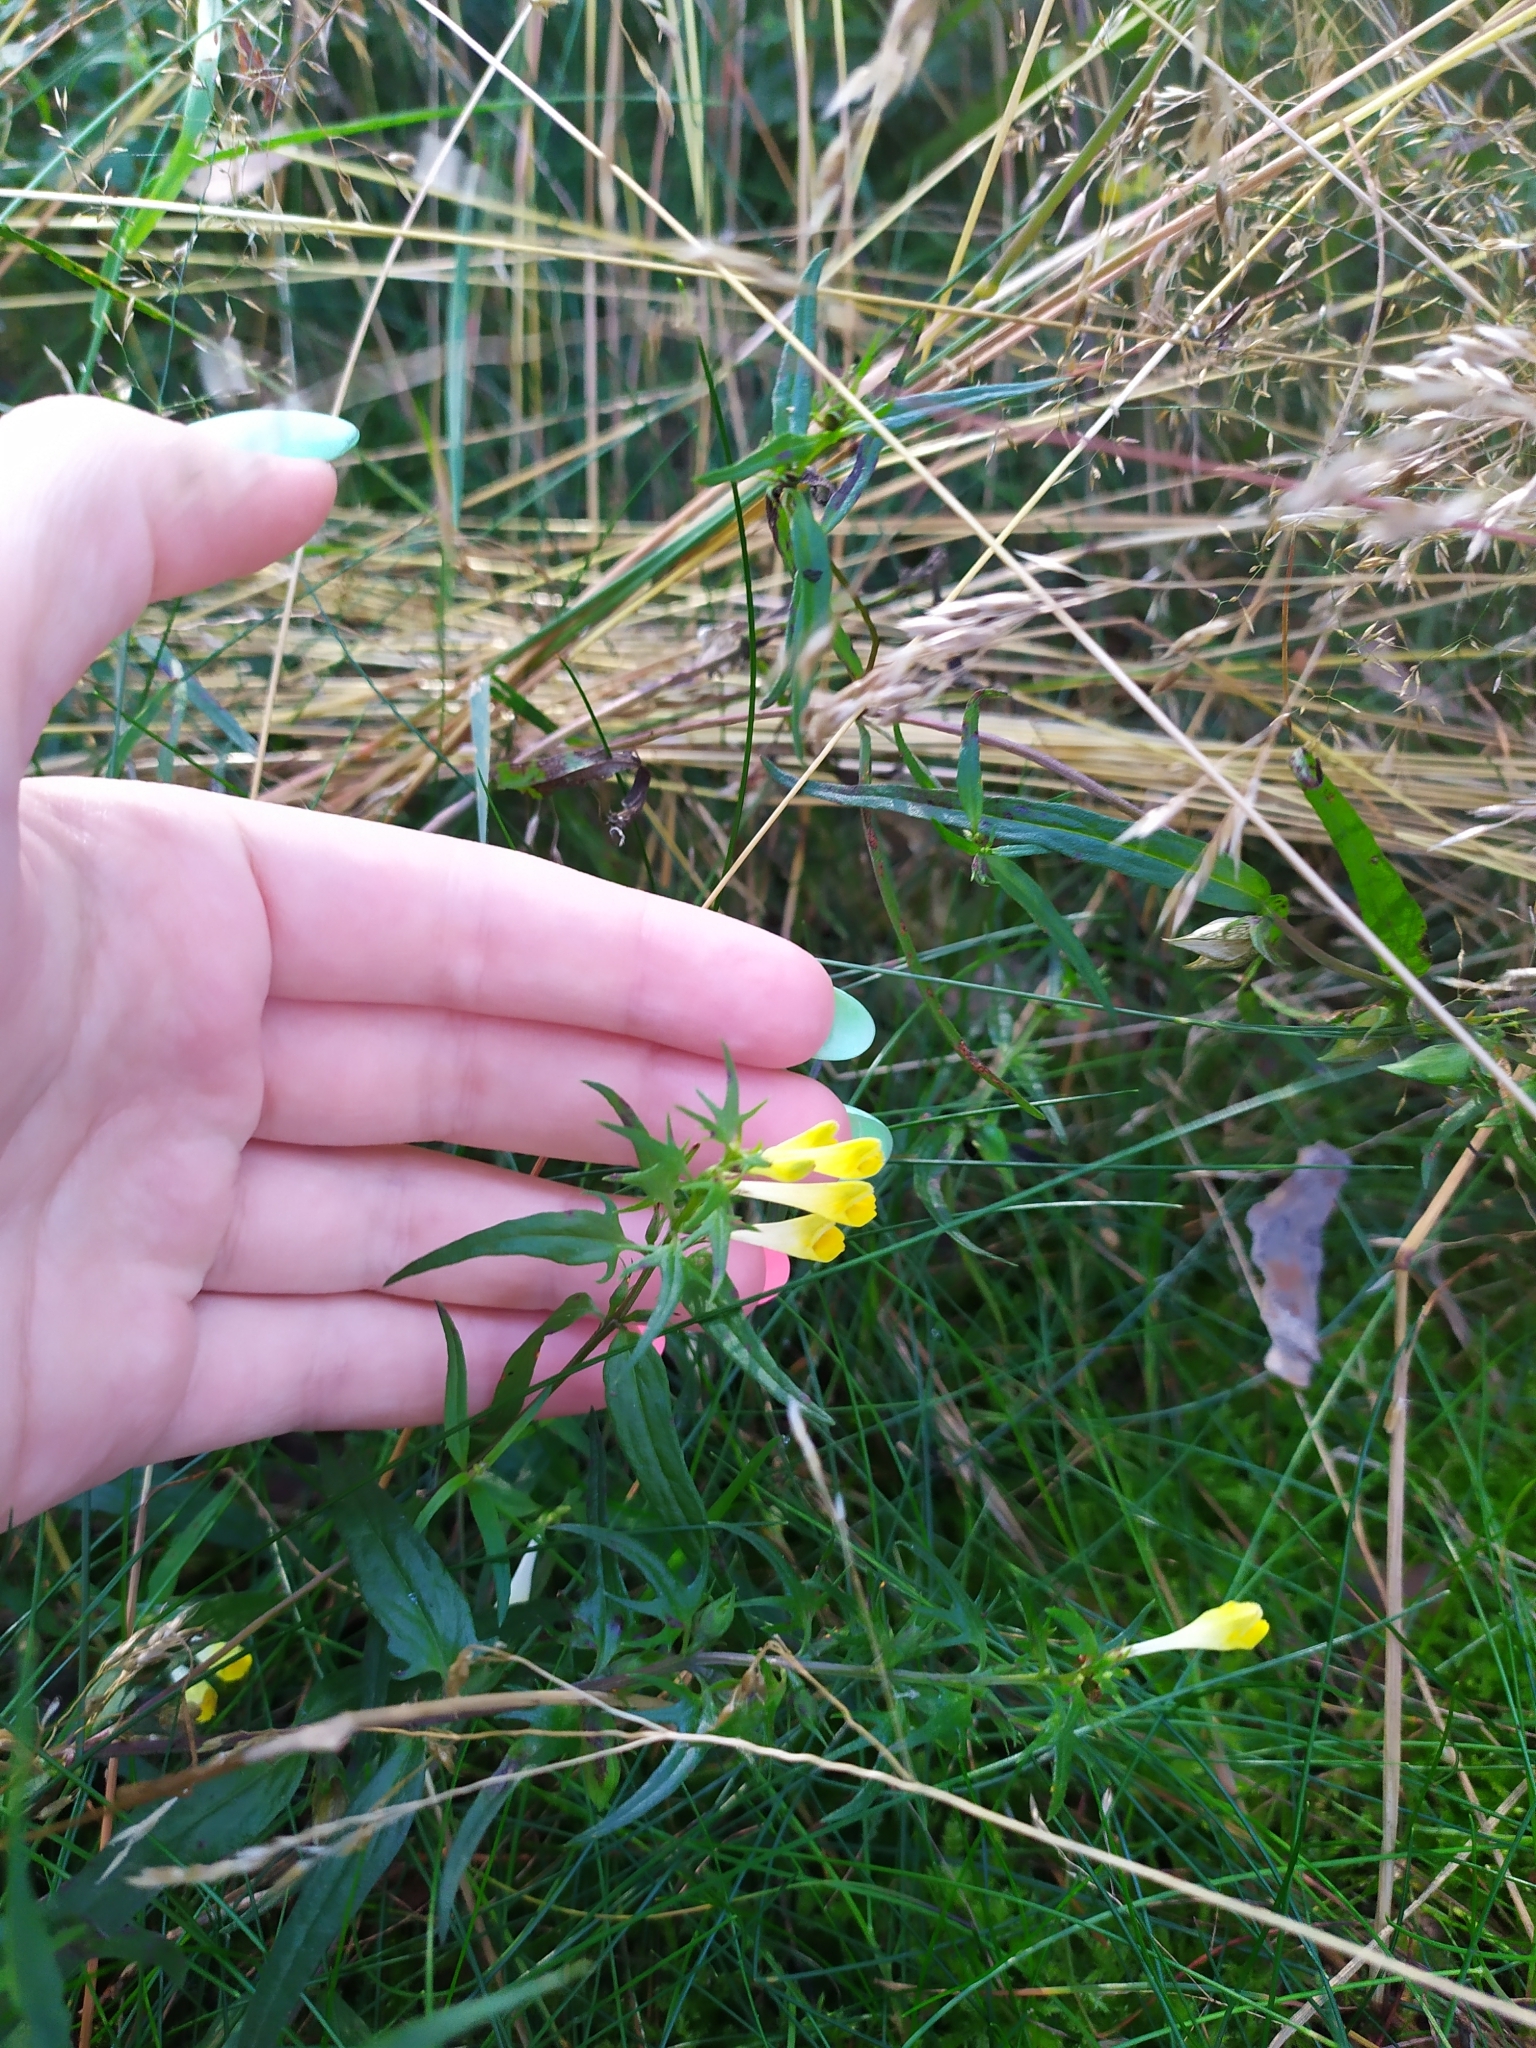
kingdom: Plantae
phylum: Tracheophyta
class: Magnoliopsida
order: Lamiales
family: Orobanchaceae
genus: Melampyrum
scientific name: Melampyrum pratense
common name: Common cow-wheat
